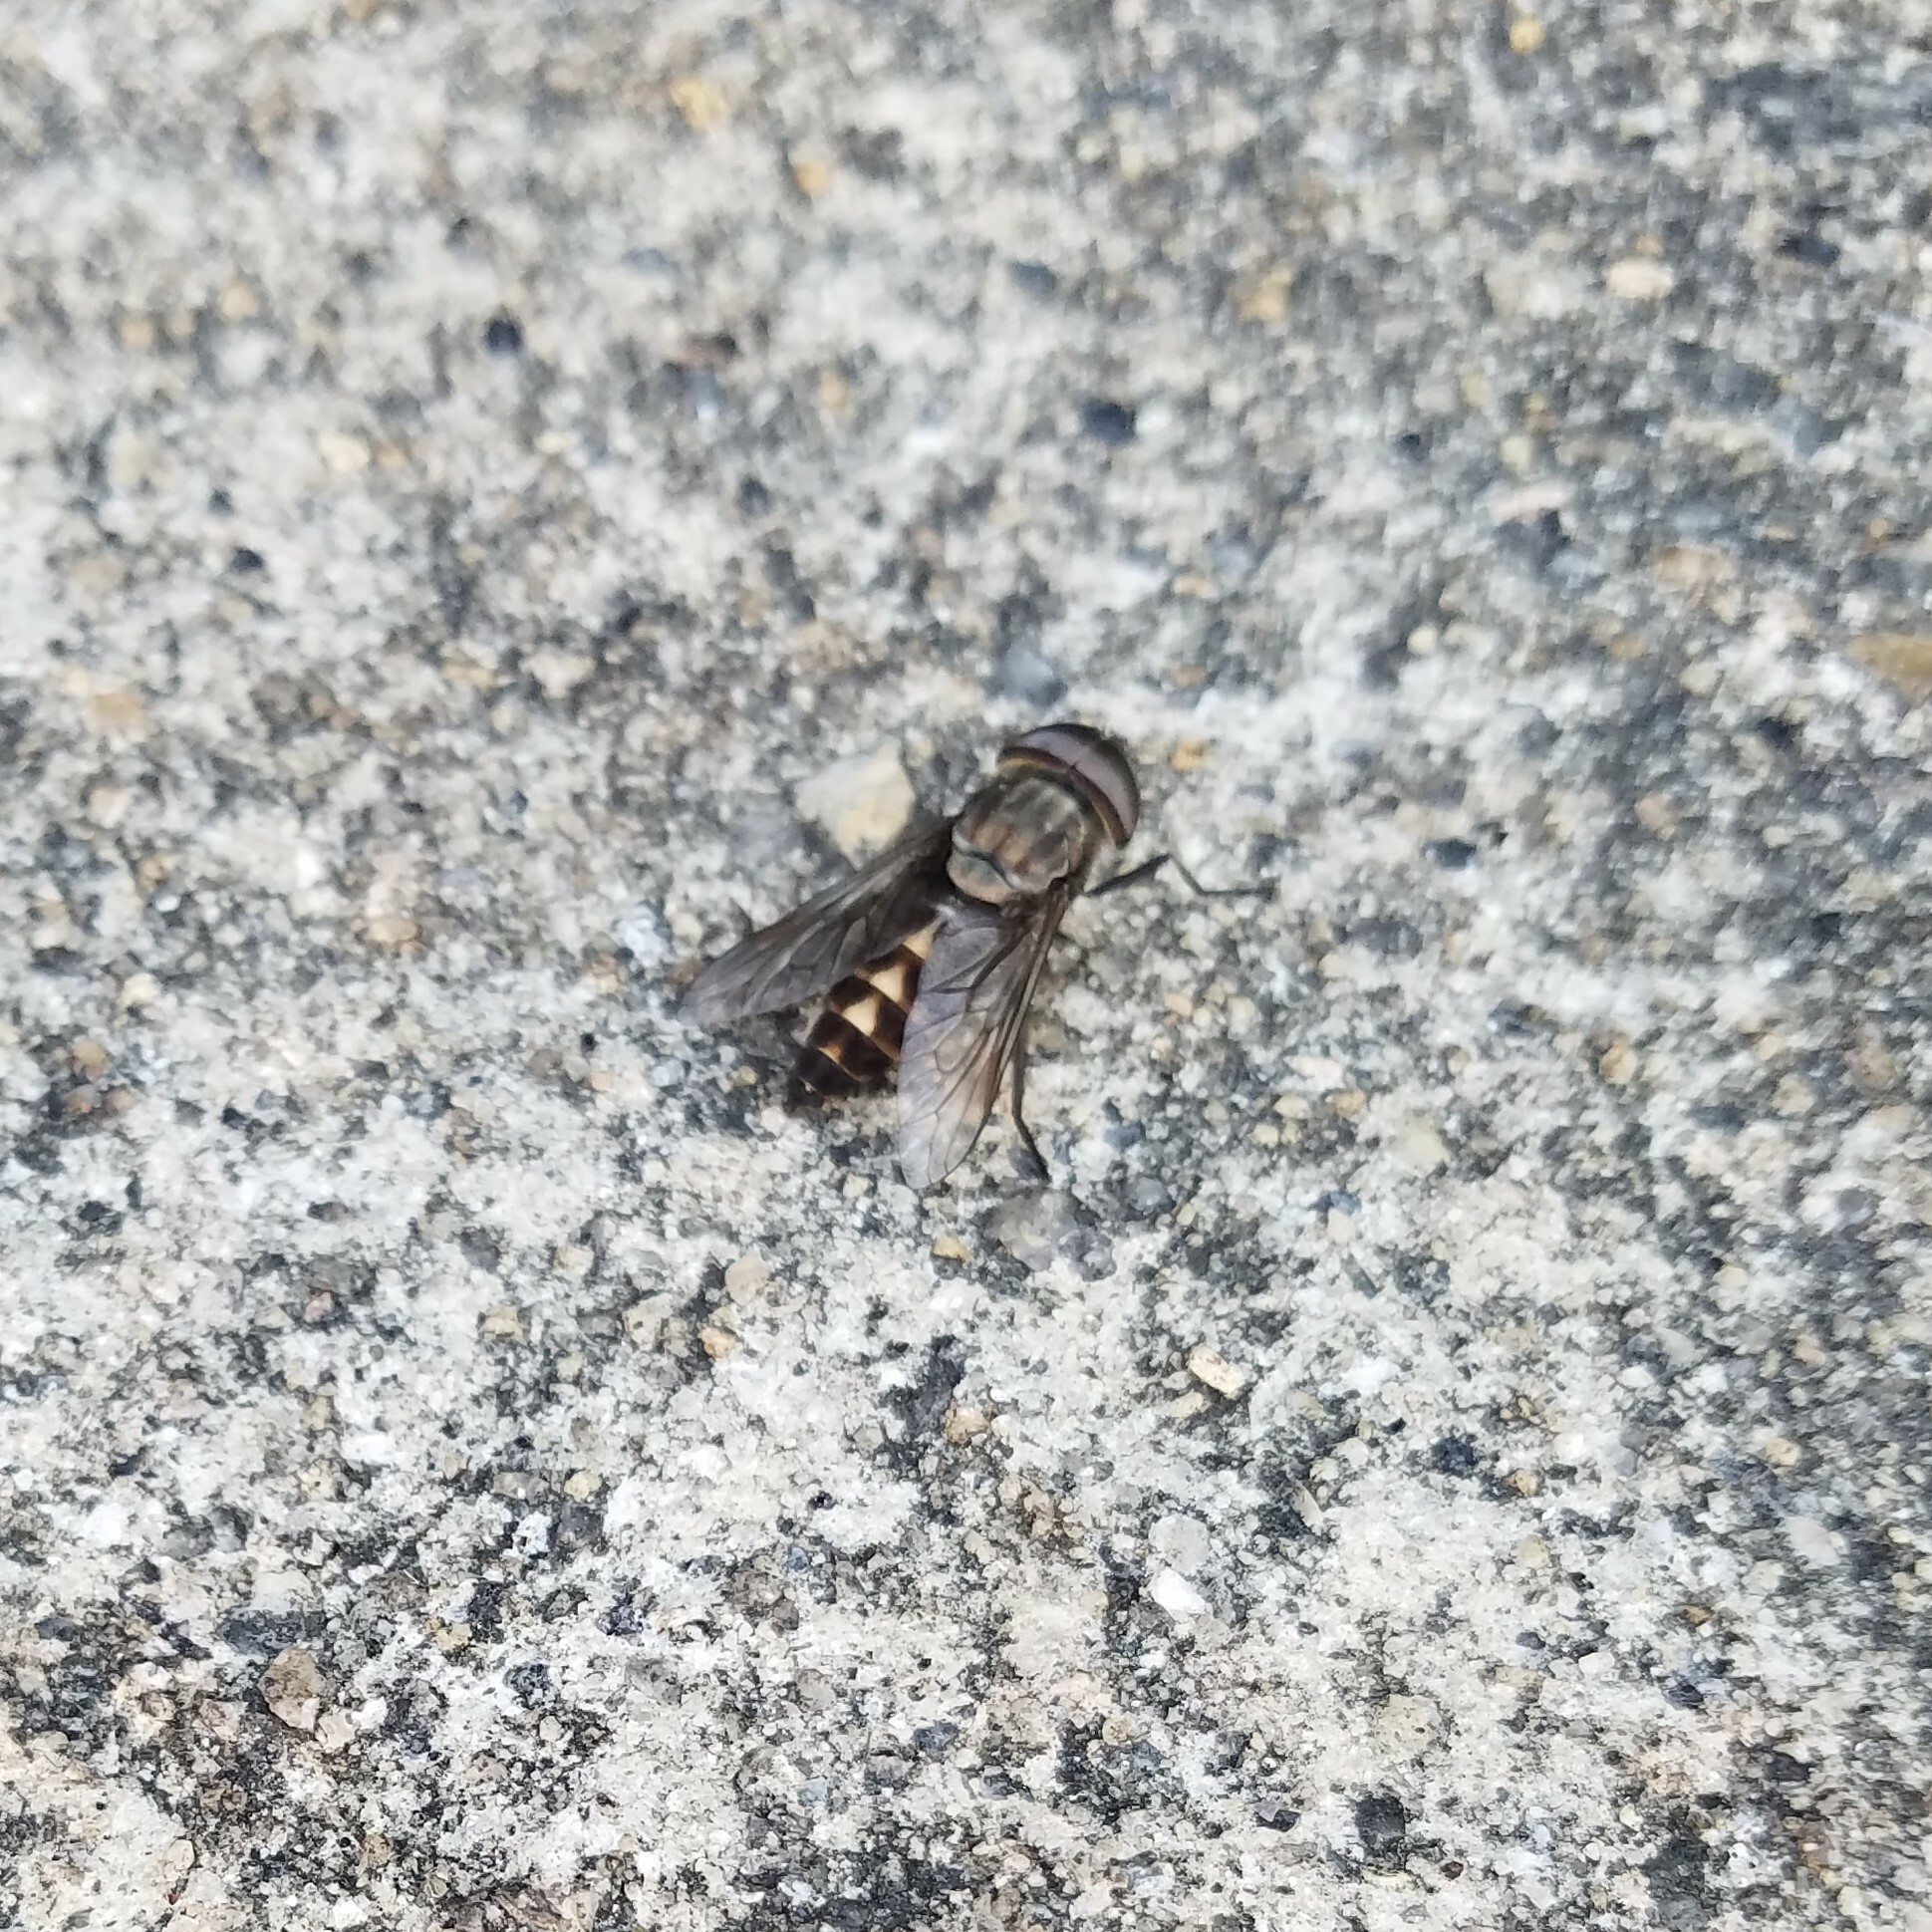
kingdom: Animalia
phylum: Arthropoda
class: Insecta
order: Diptera
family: Tabanidae
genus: Tabanus
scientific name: Tabanus melanocerus
